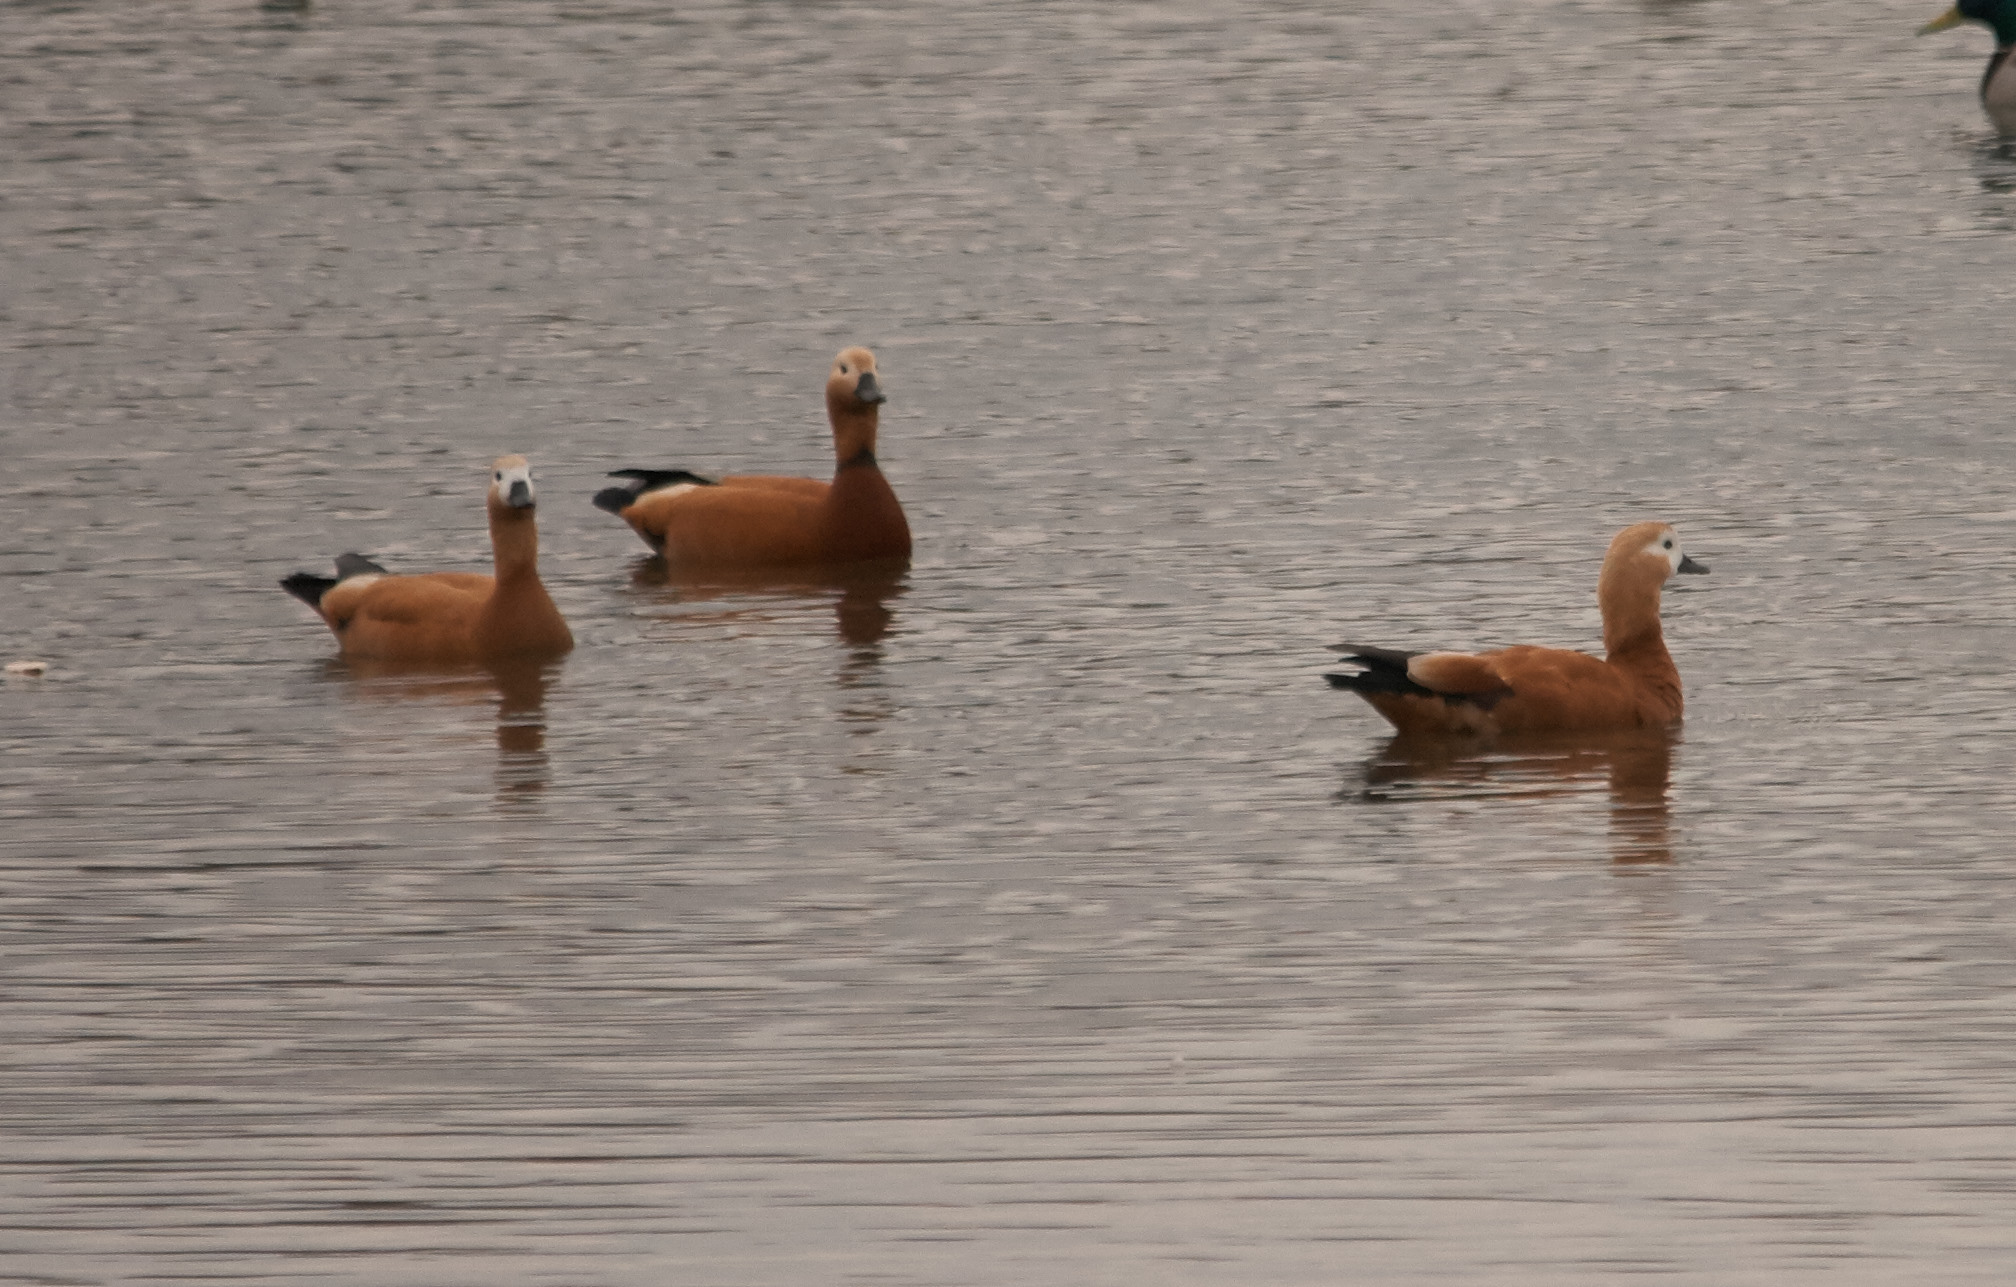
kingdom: Animalia
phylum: Chordata
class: Aves
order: Anseriformes
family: Anatidae
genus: Tadorna
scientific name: Tadorna ferruginea
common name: Ruddy shelduck
